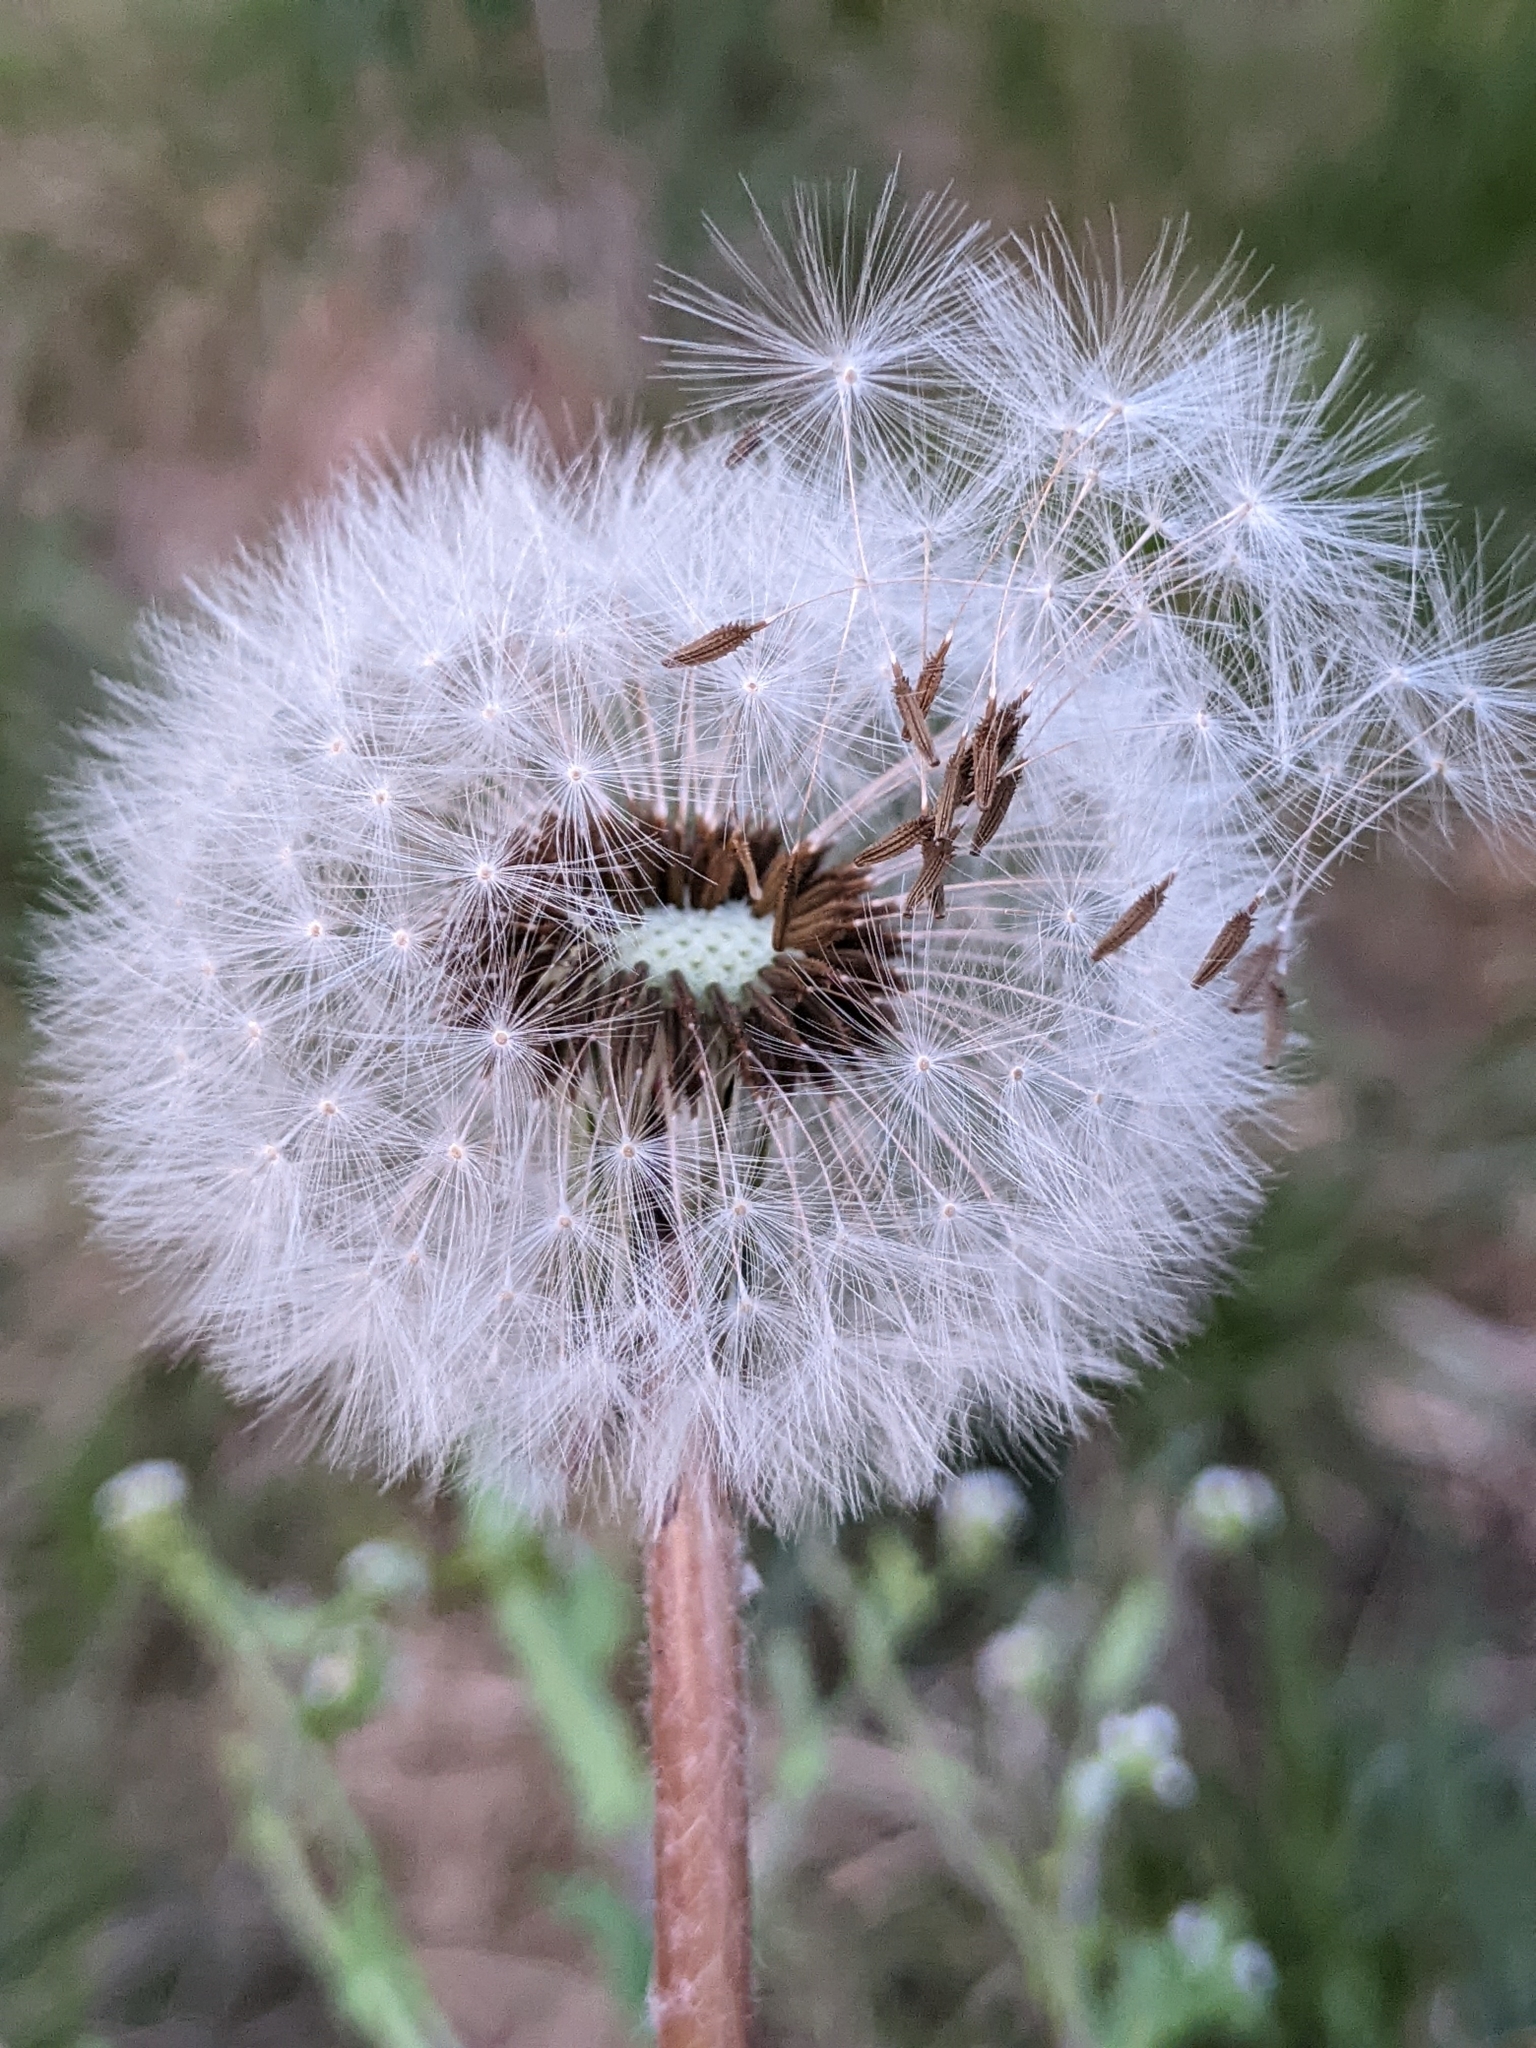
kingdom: Plantae
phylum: Tracheophyta
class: Magnoliopsida
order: Asterales
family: Asteraceae
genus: Taraxacum
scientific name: Taraxacum erythrospermum
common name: Rock dandelion
